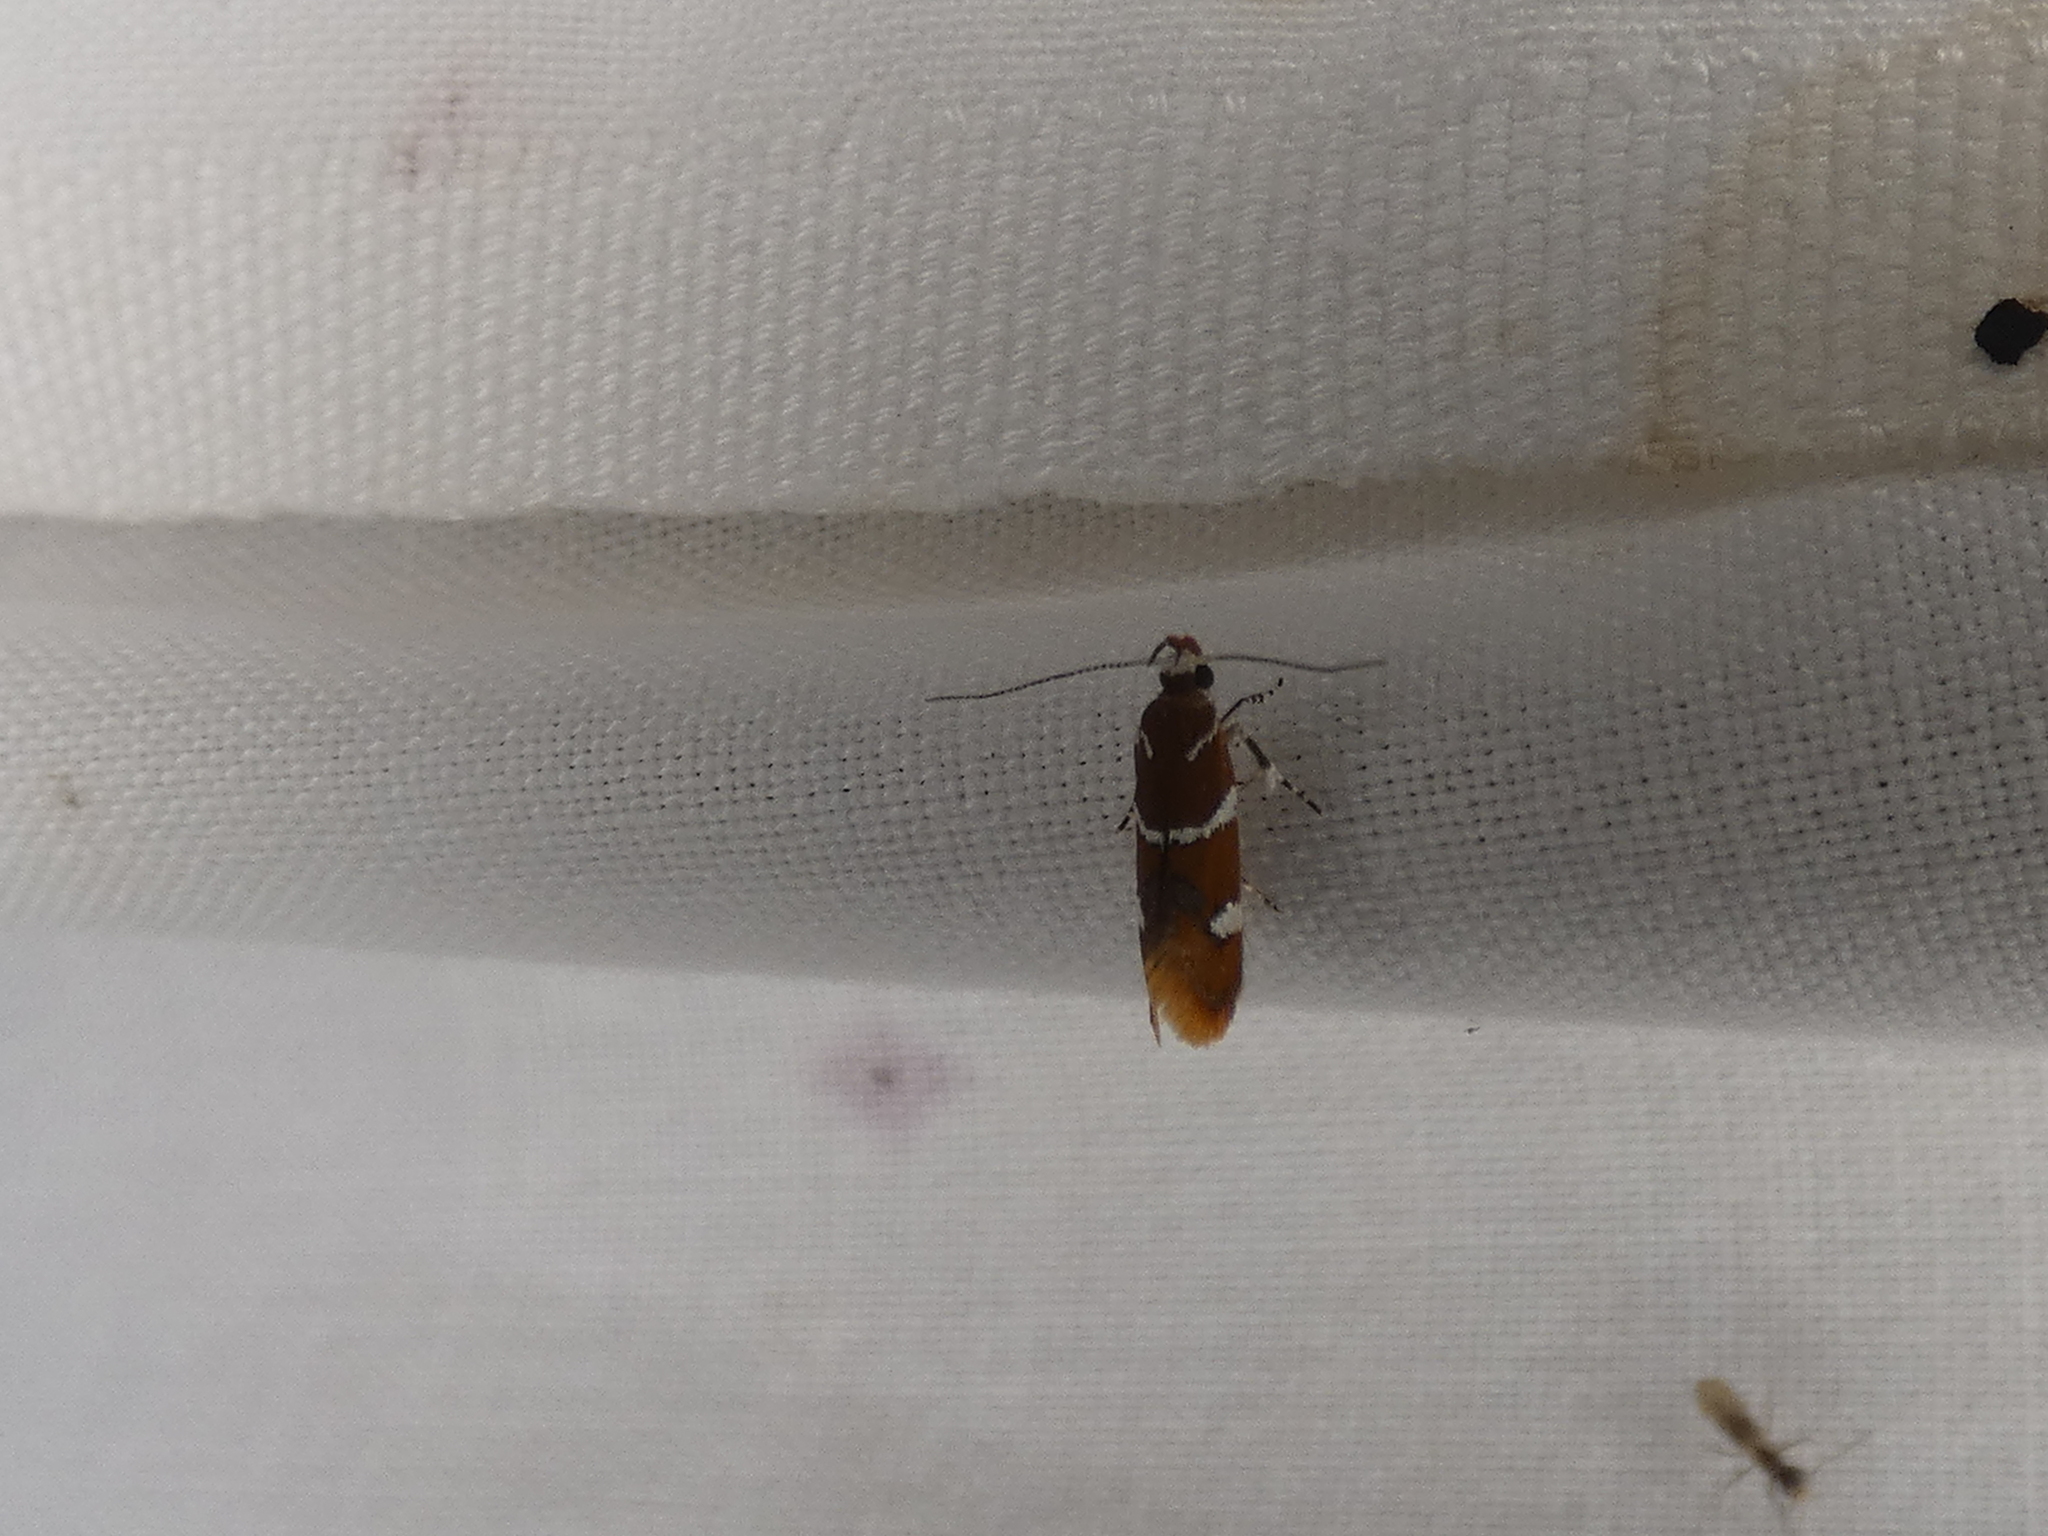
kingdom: Animalia
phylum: Arthropoda
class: Insecta
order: Lepidoptera
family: Oecophoridae
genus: Promalactis
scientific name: Promalactis suzukiella
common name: Moth
